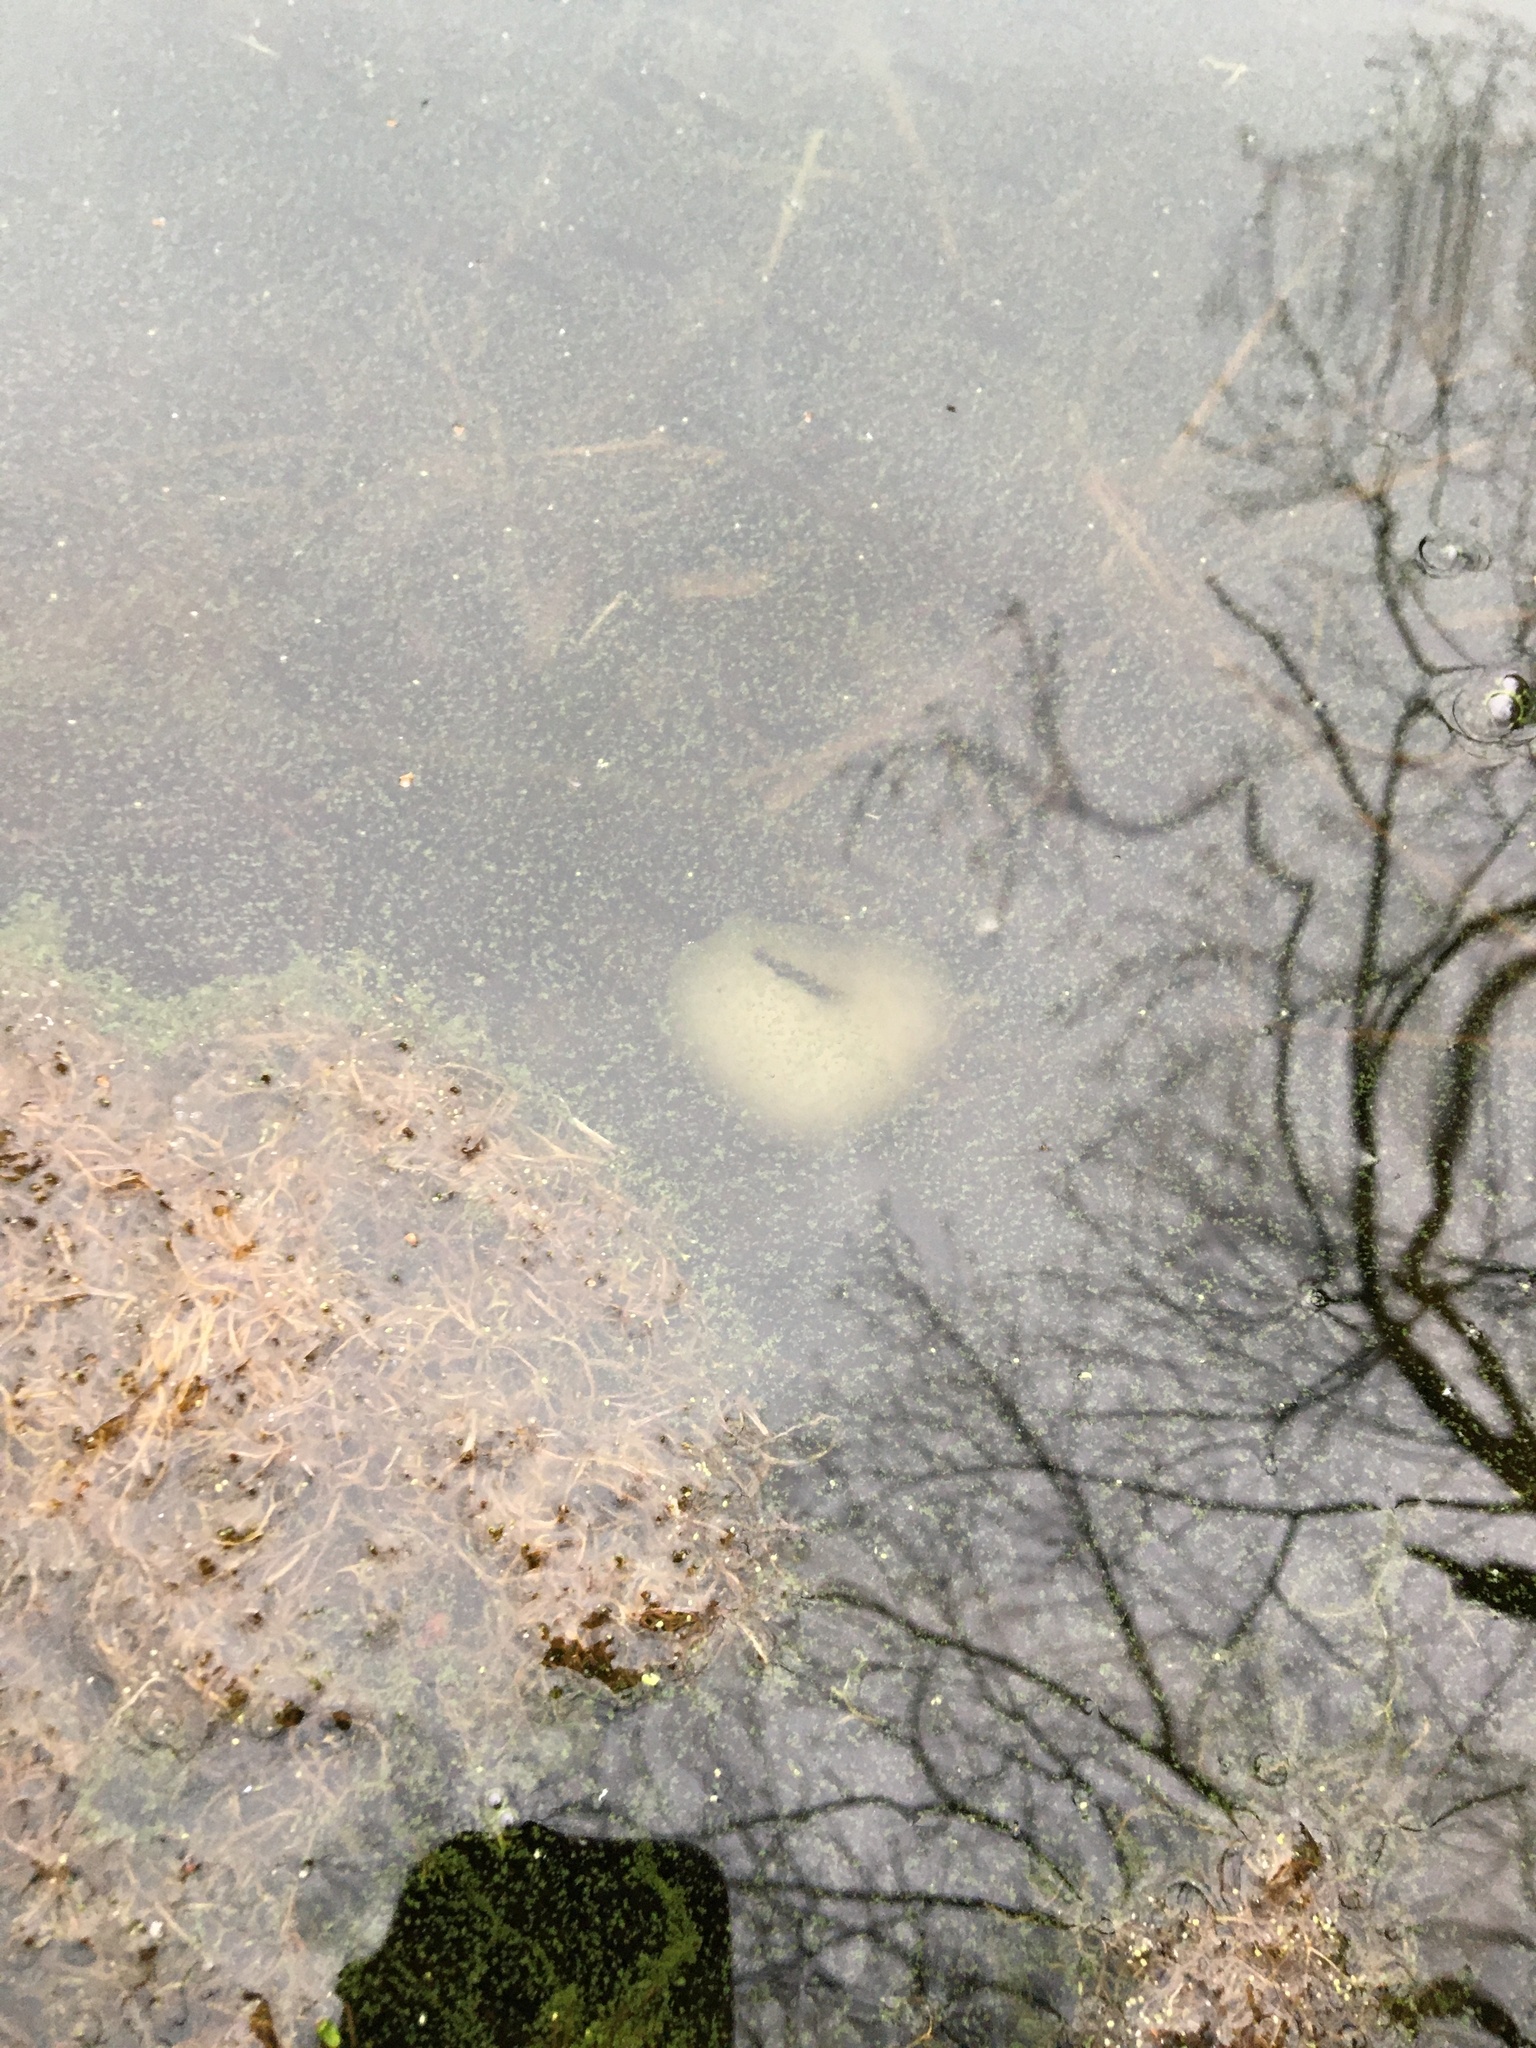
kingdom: Animalia
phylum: Chordata
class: Amphibia
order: Caudata
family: Ambystomatidae
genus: Ambystoma
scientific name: Ambystoma maculatum
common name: Spotted salamander
